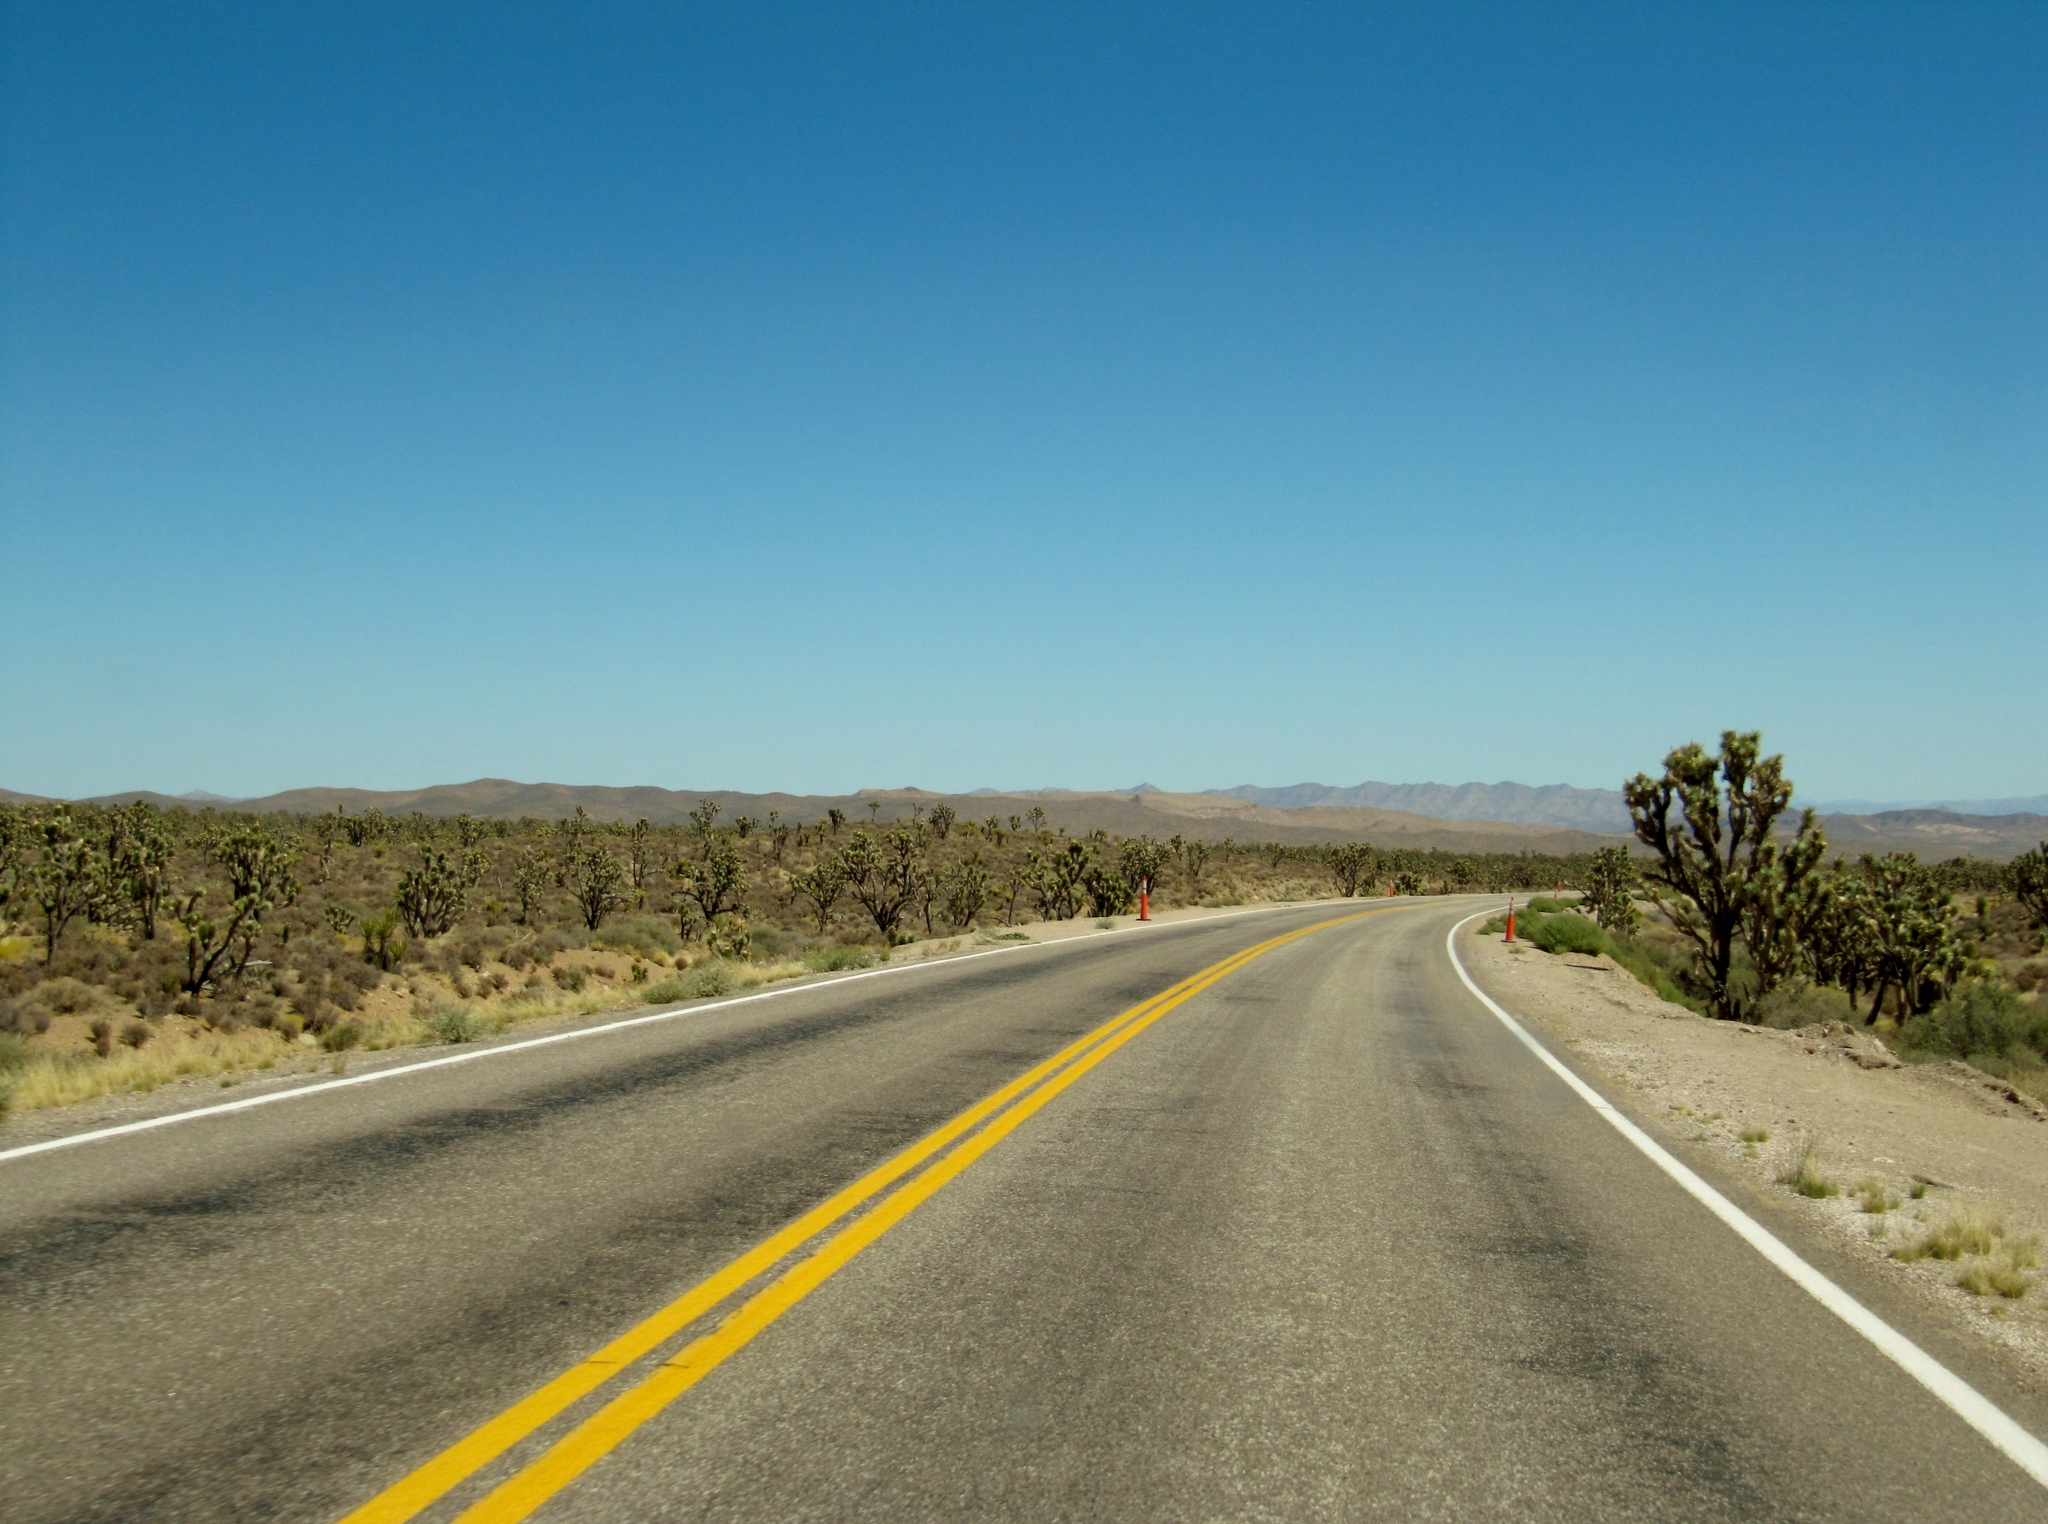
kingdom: Plantae
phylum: Tracheophyta
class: Liliopsida
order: Asparagales
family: Asparagaceae
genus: Yucca
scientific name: Yucca brevifolia
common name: Joshua tree
